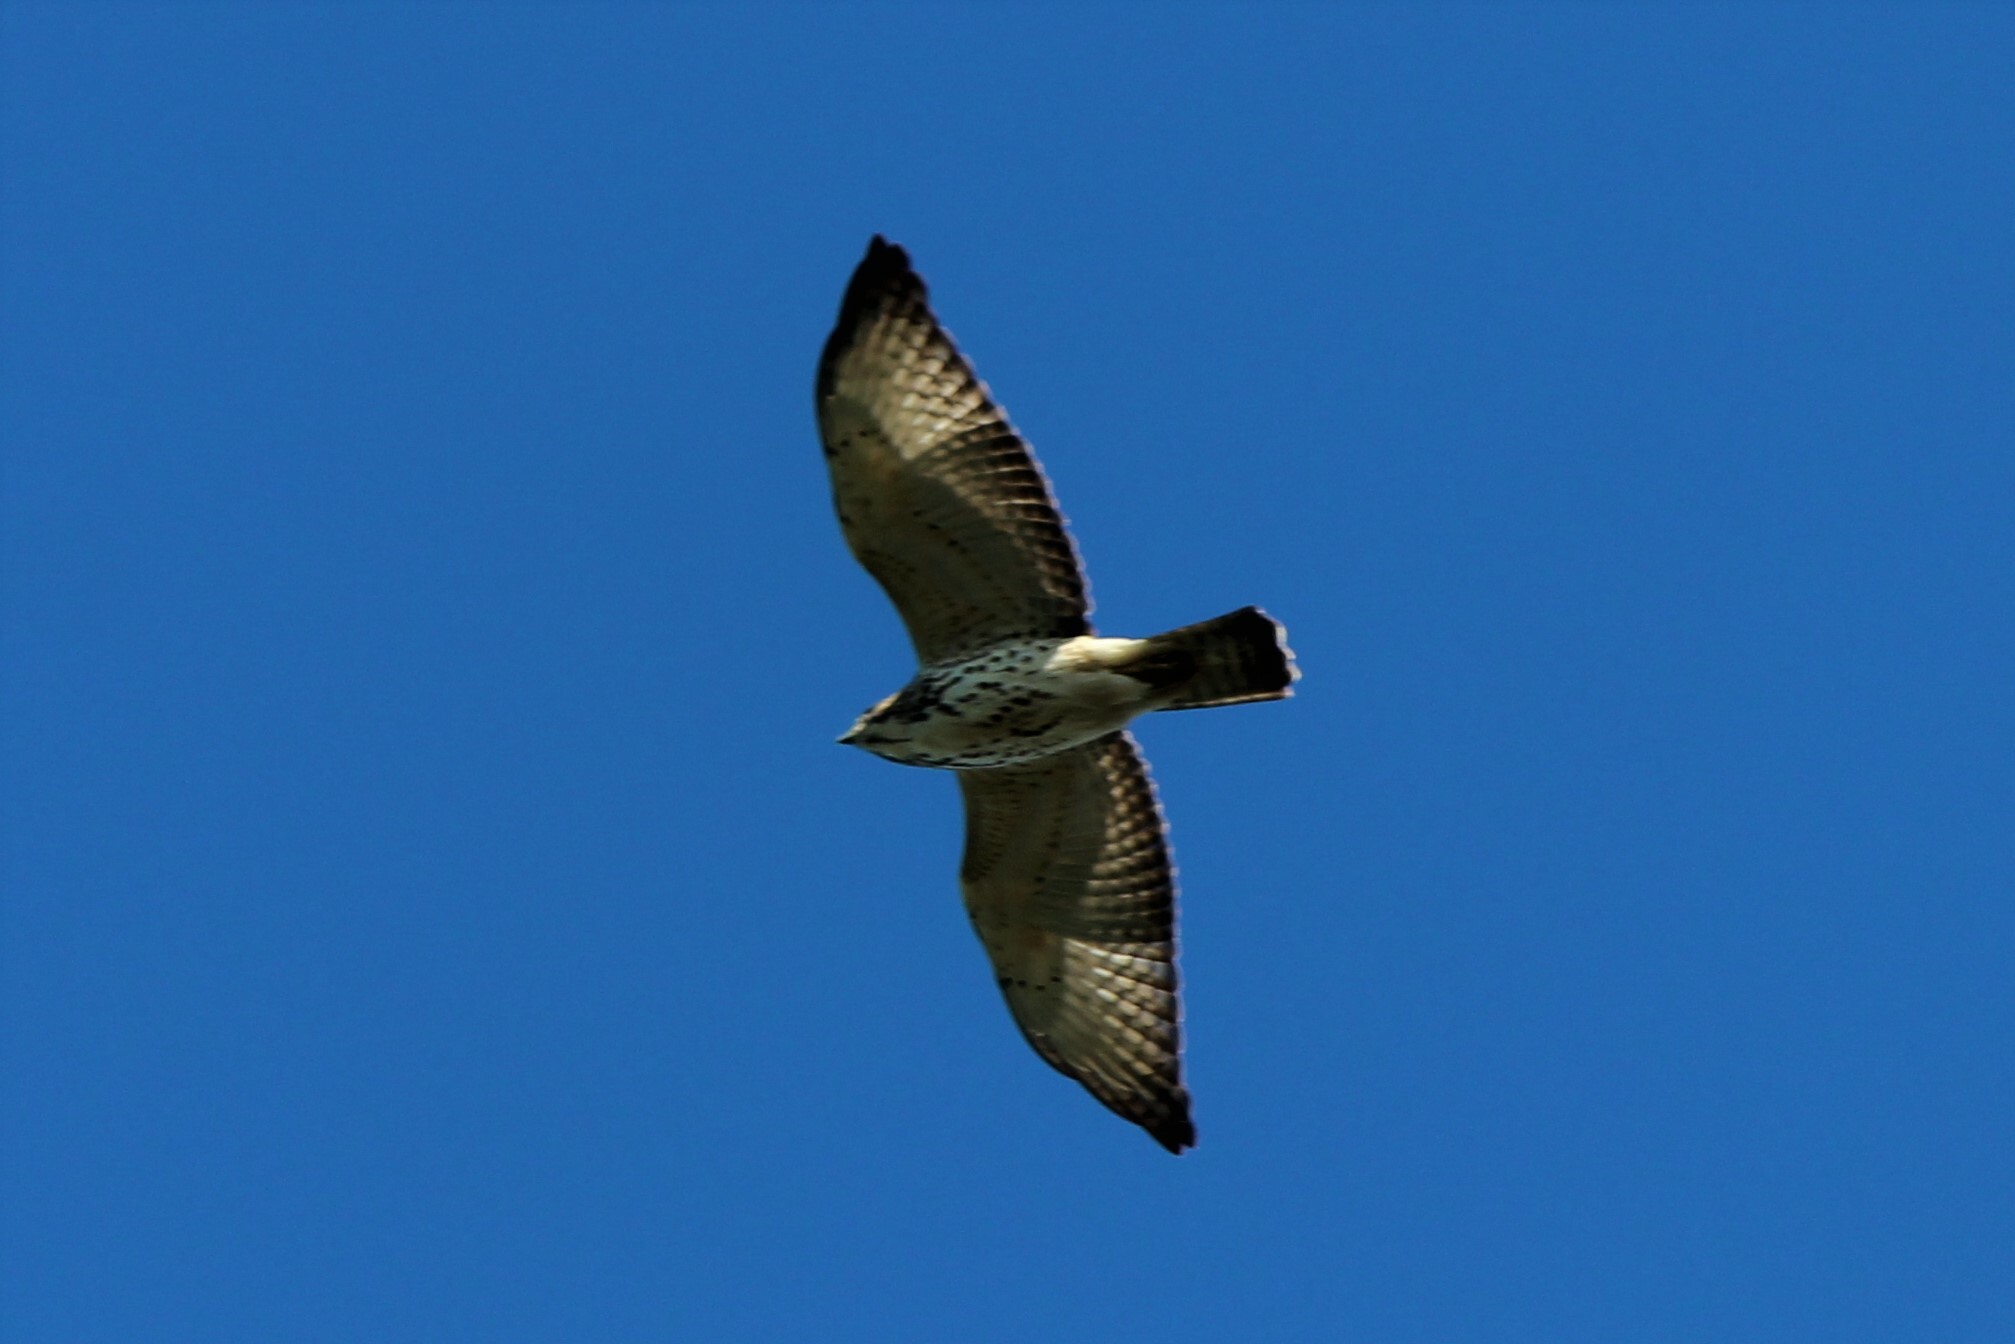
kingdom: Animalia
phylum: Chordata
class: Aves
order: Accipitriformes
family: Accipitridae
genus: Buteo
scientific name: Buteo platypterus
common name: Broad-winged hawk
